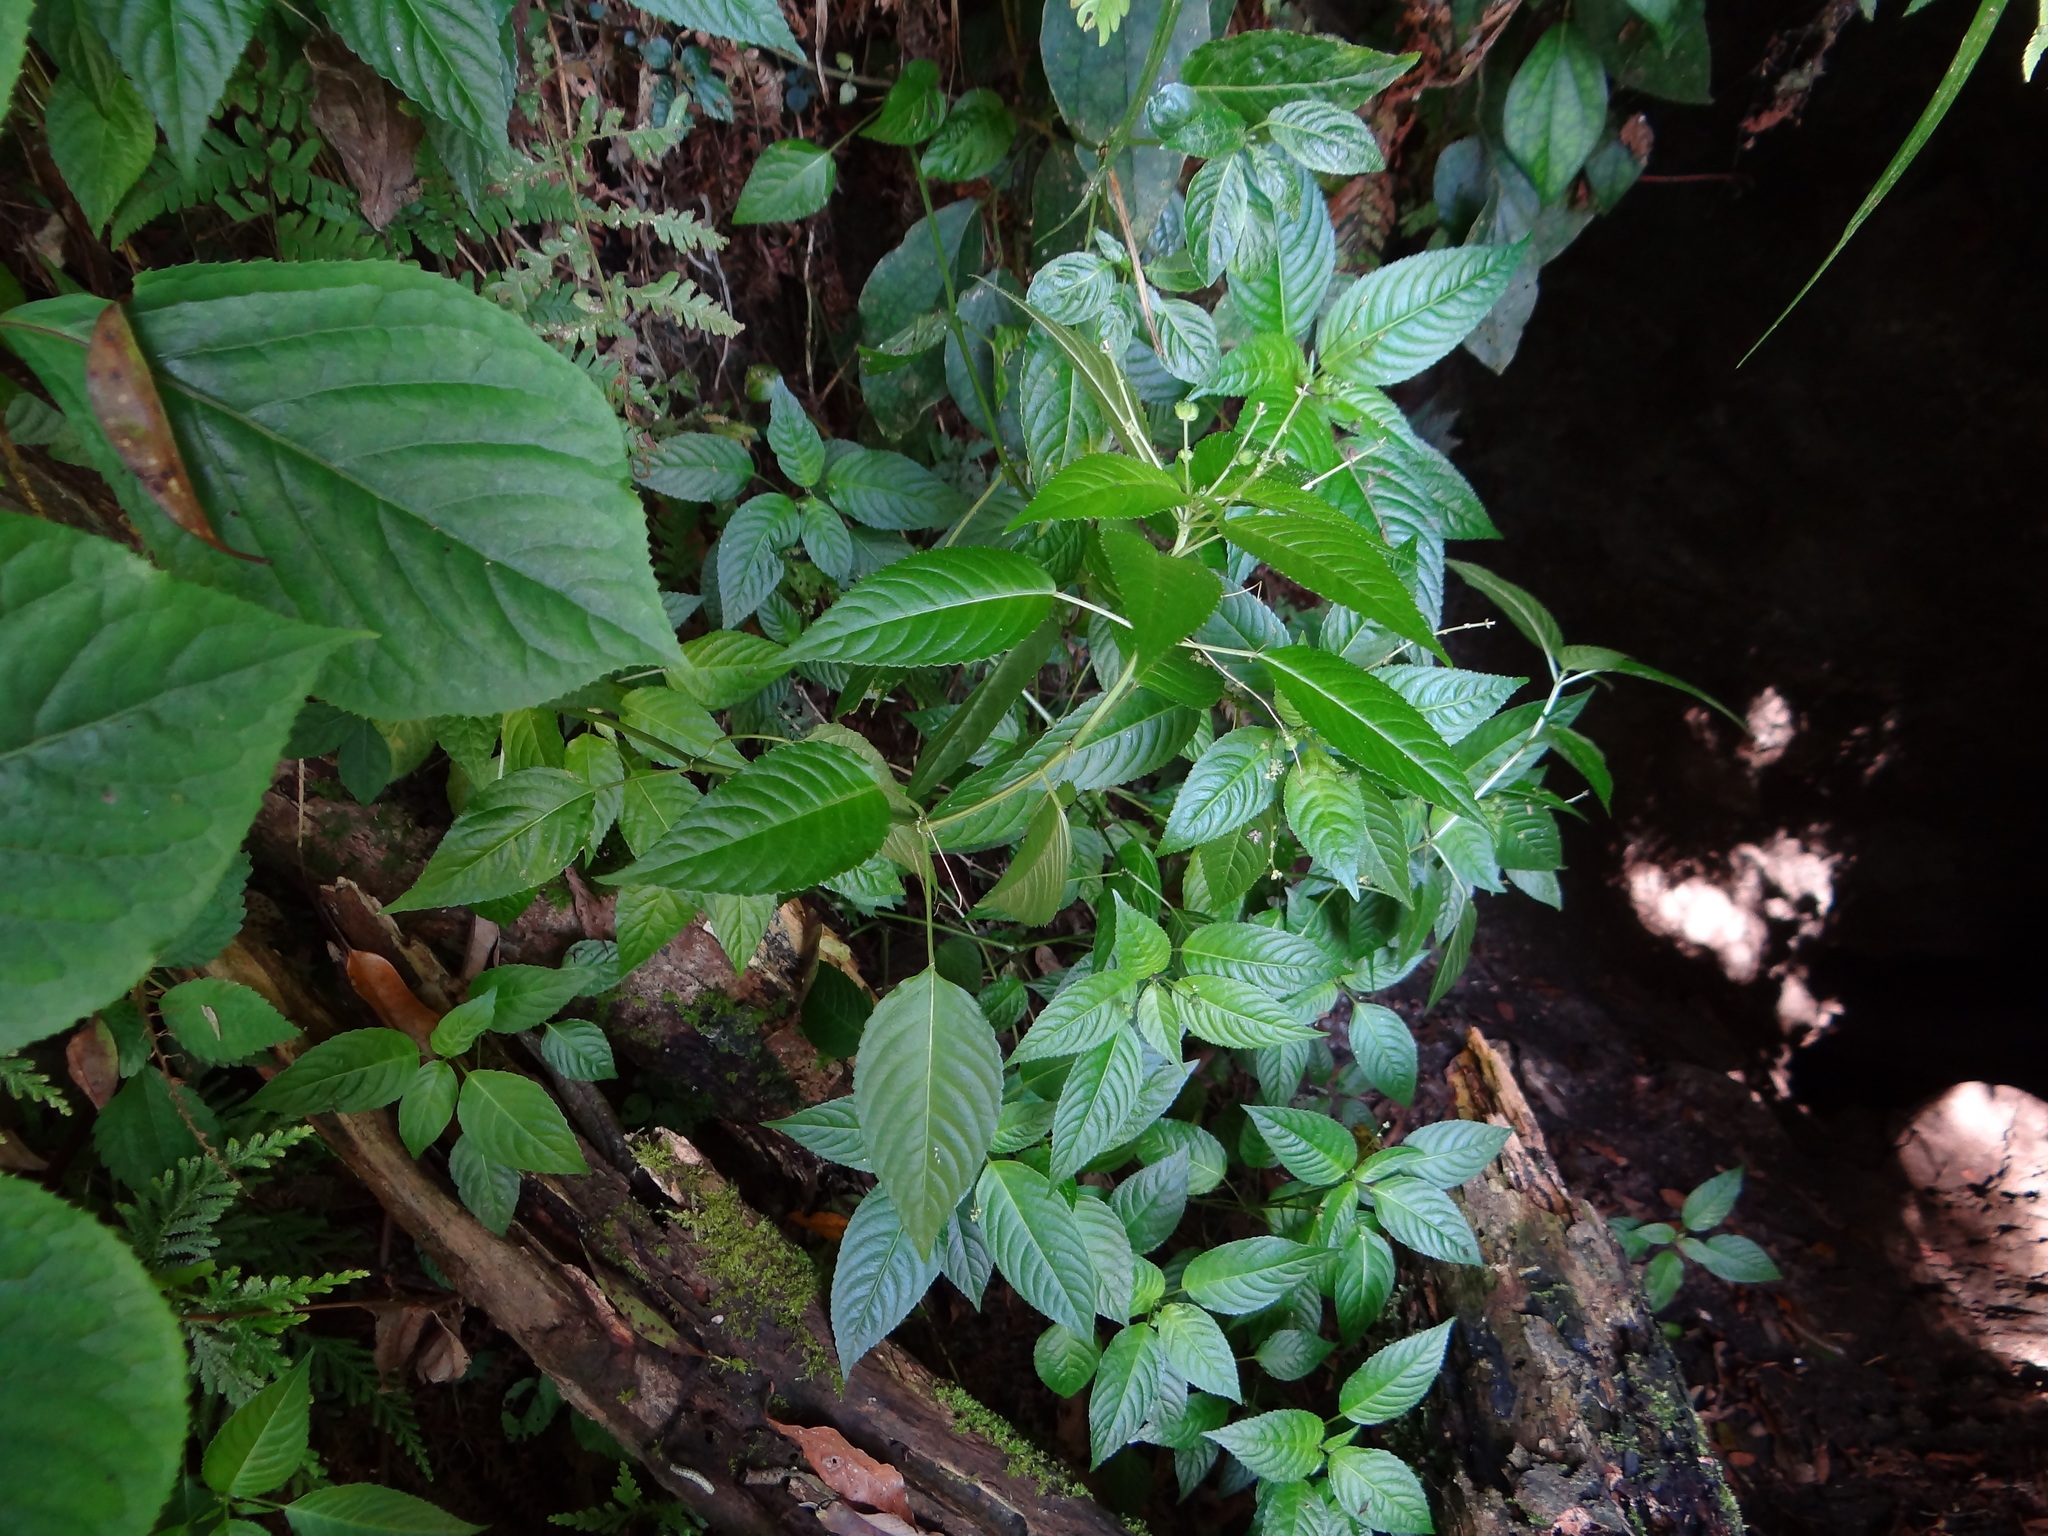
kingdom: Plantae
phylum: Tracheophyta
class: Magnoliopsida
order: Malpighiales
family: Euphorbiaceae
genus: Mercurialis
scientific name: Mercurialis leiocarpa
